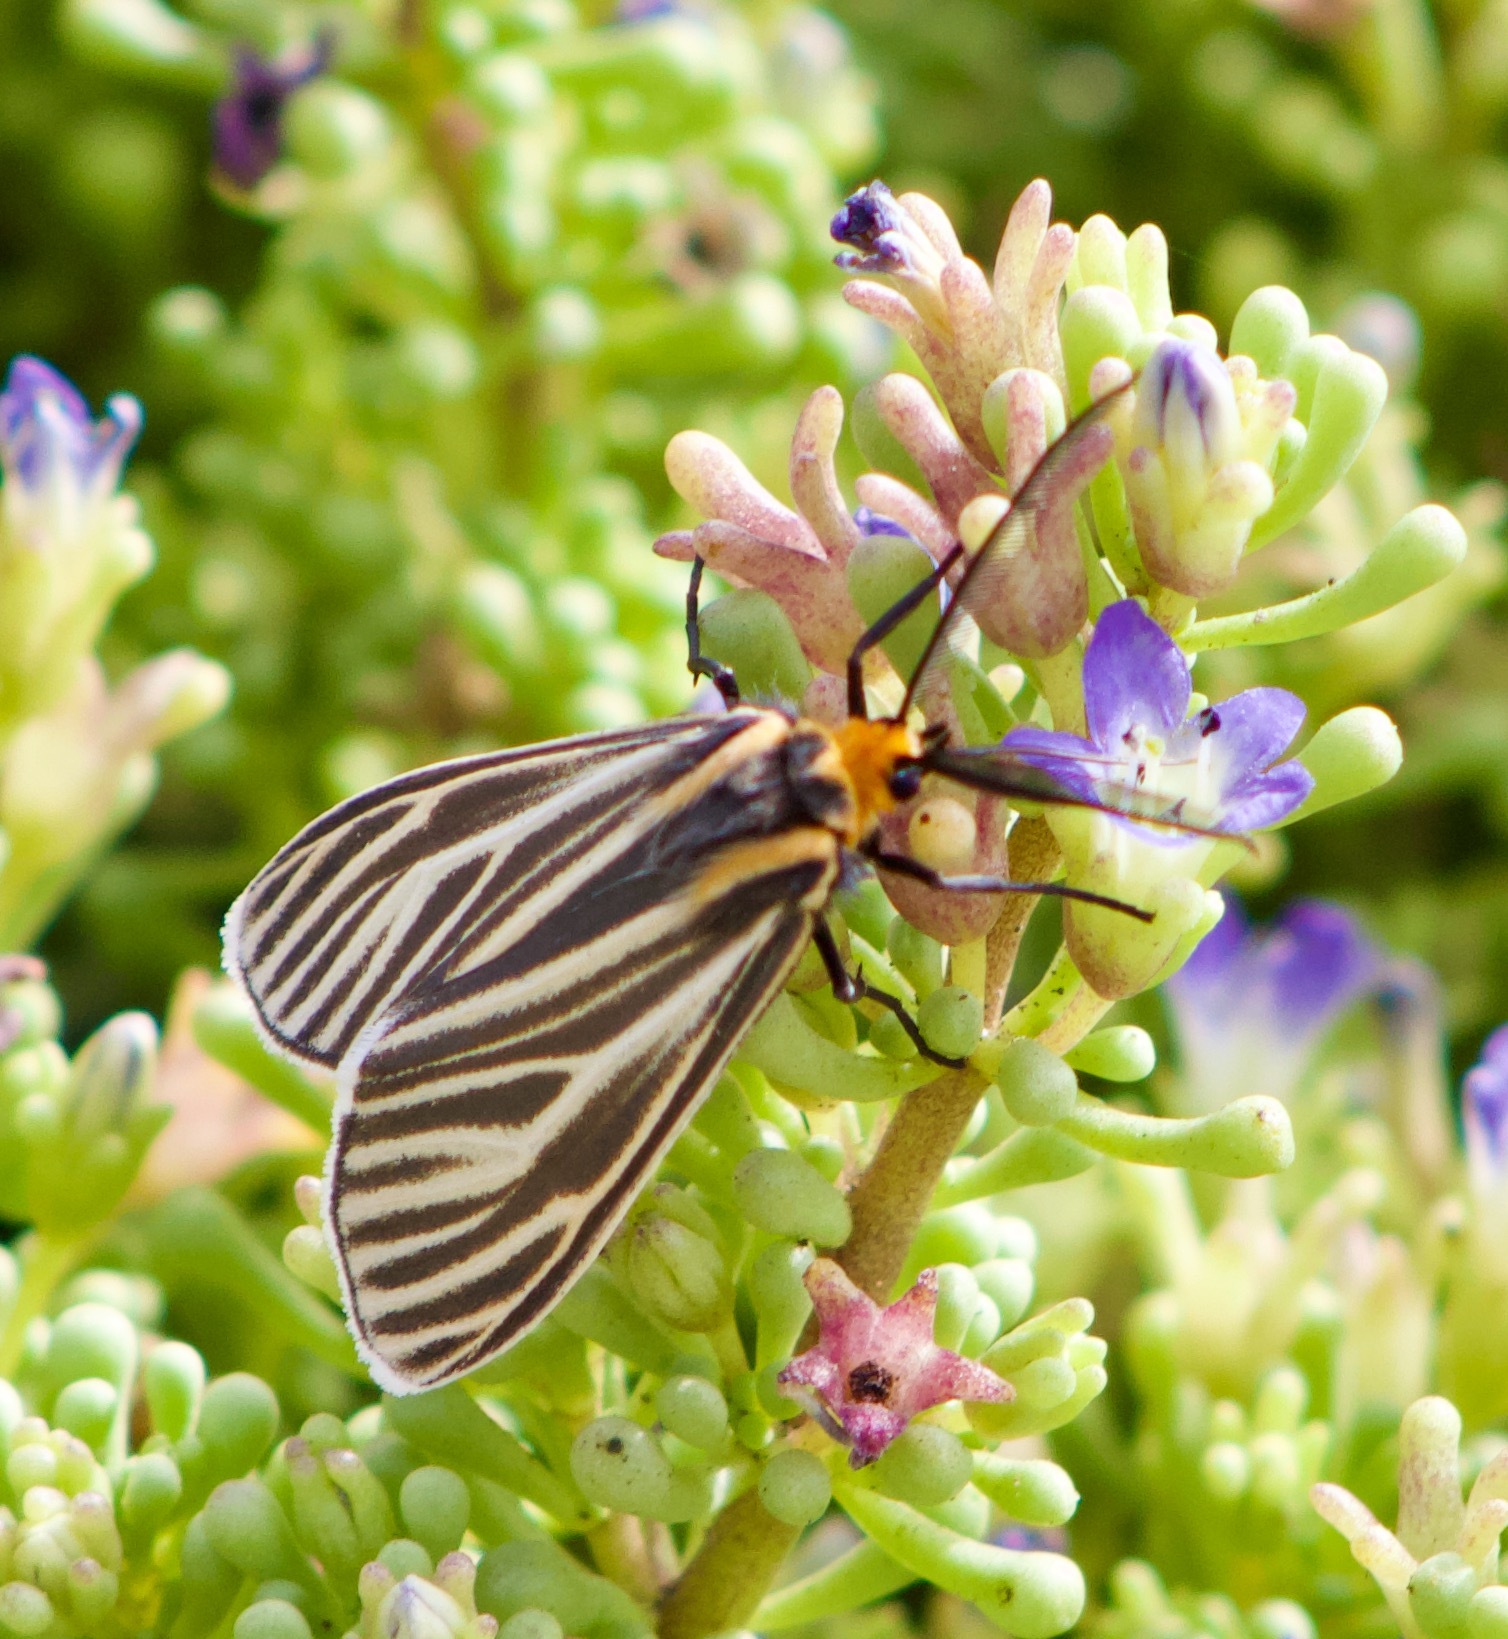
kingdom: Animalia
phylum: Arthropoda
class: Insecta
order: Lepidoptera
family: Erebidae
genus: Ctenucha
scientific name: Ctenucha vittigerum
